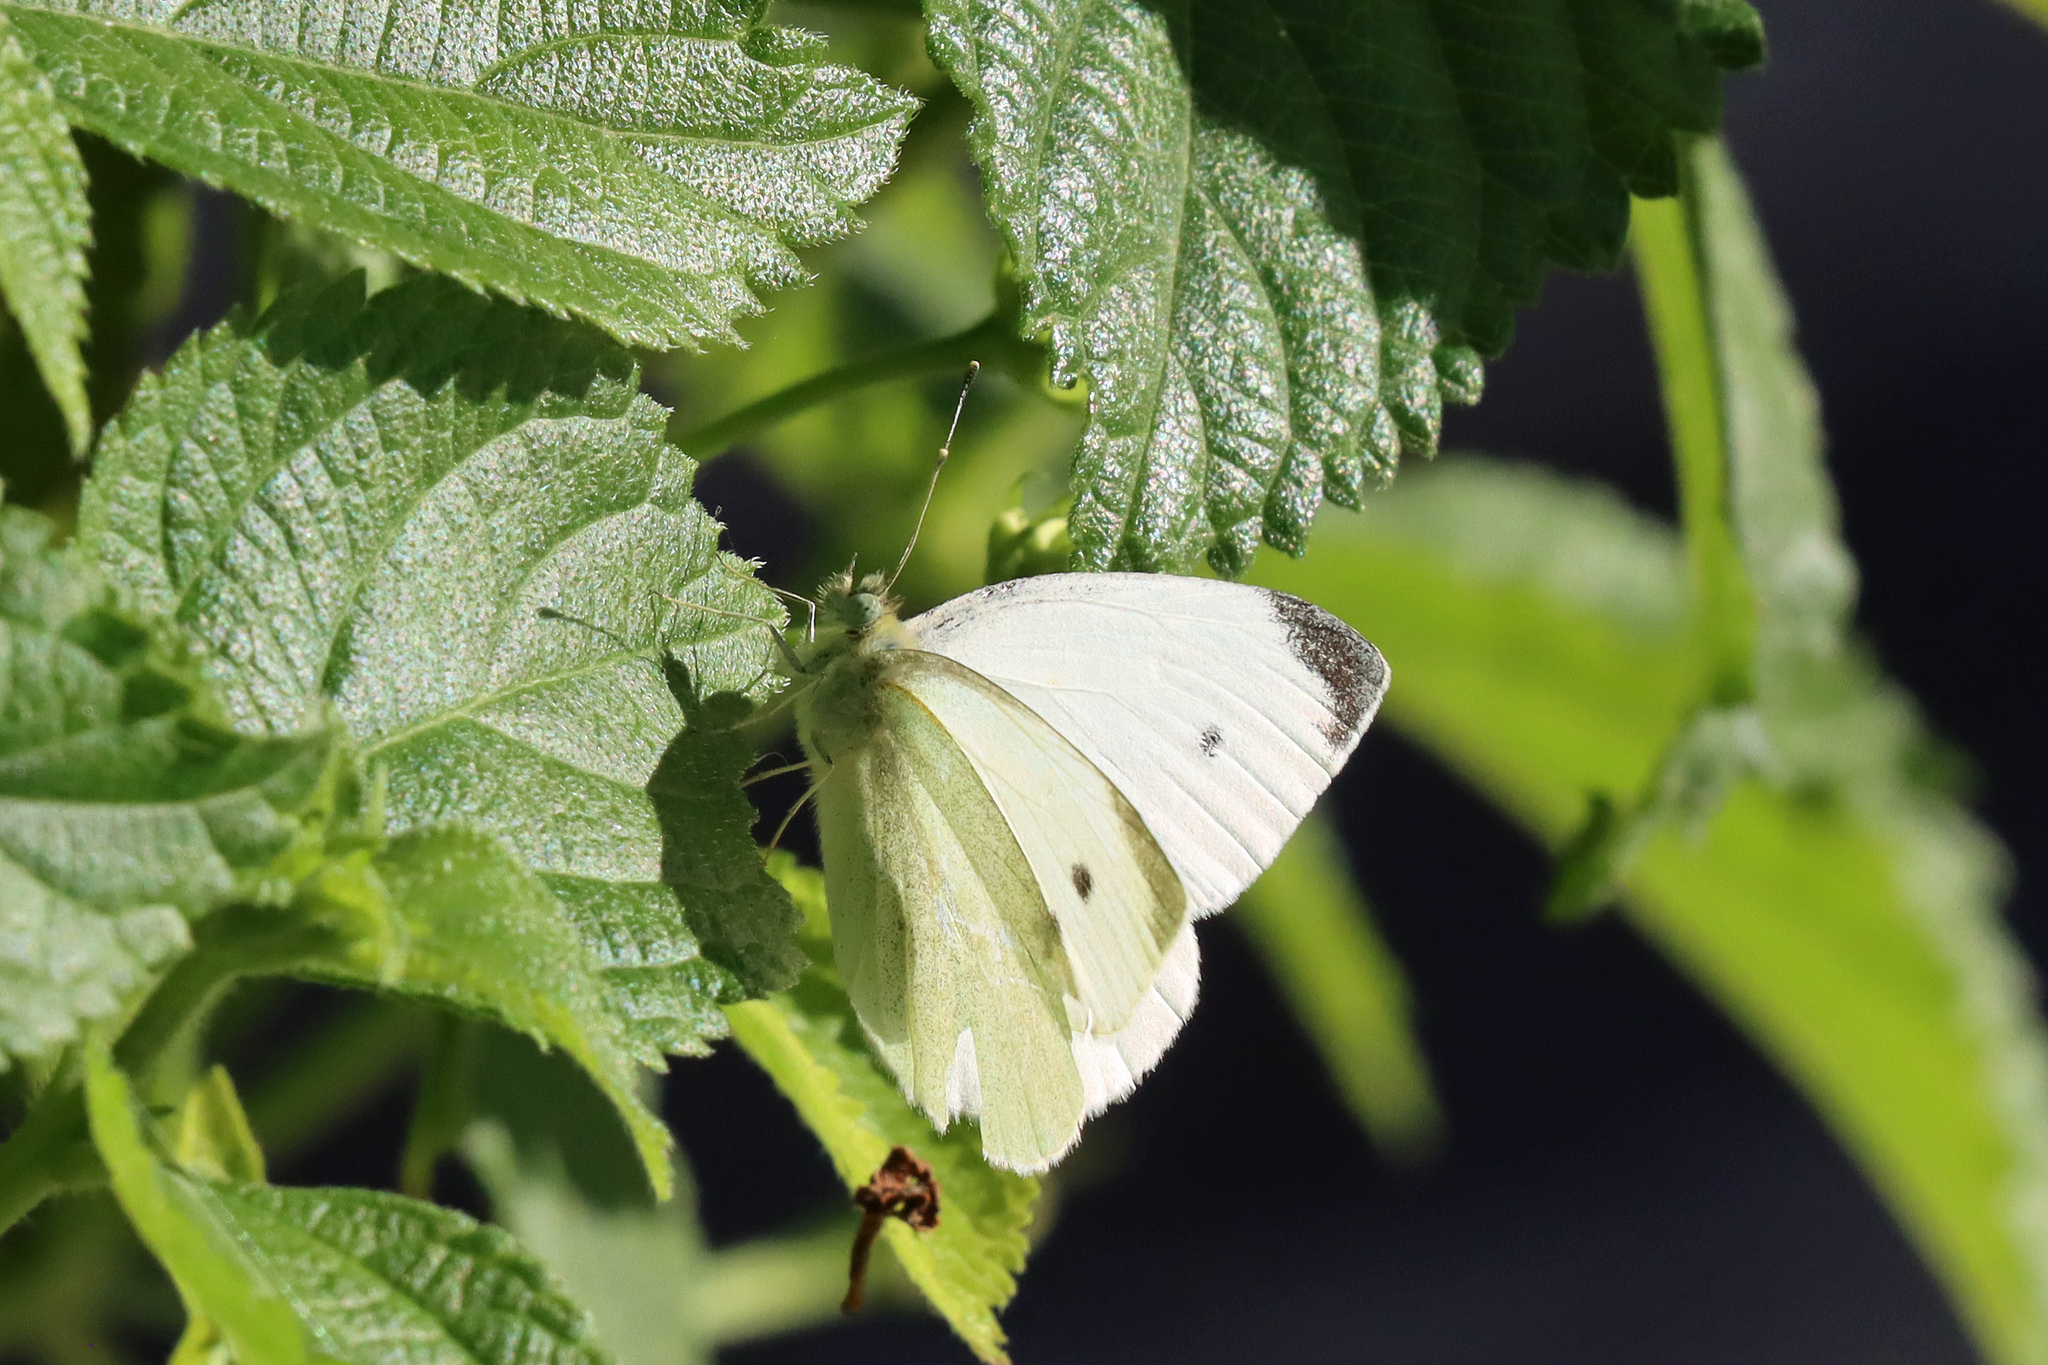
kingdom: Animalia
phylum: Arthropoda
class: Insecta
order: Lepidoptera
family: Pieridae
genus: Pieris
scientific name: Pieris rapae
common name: Small white
